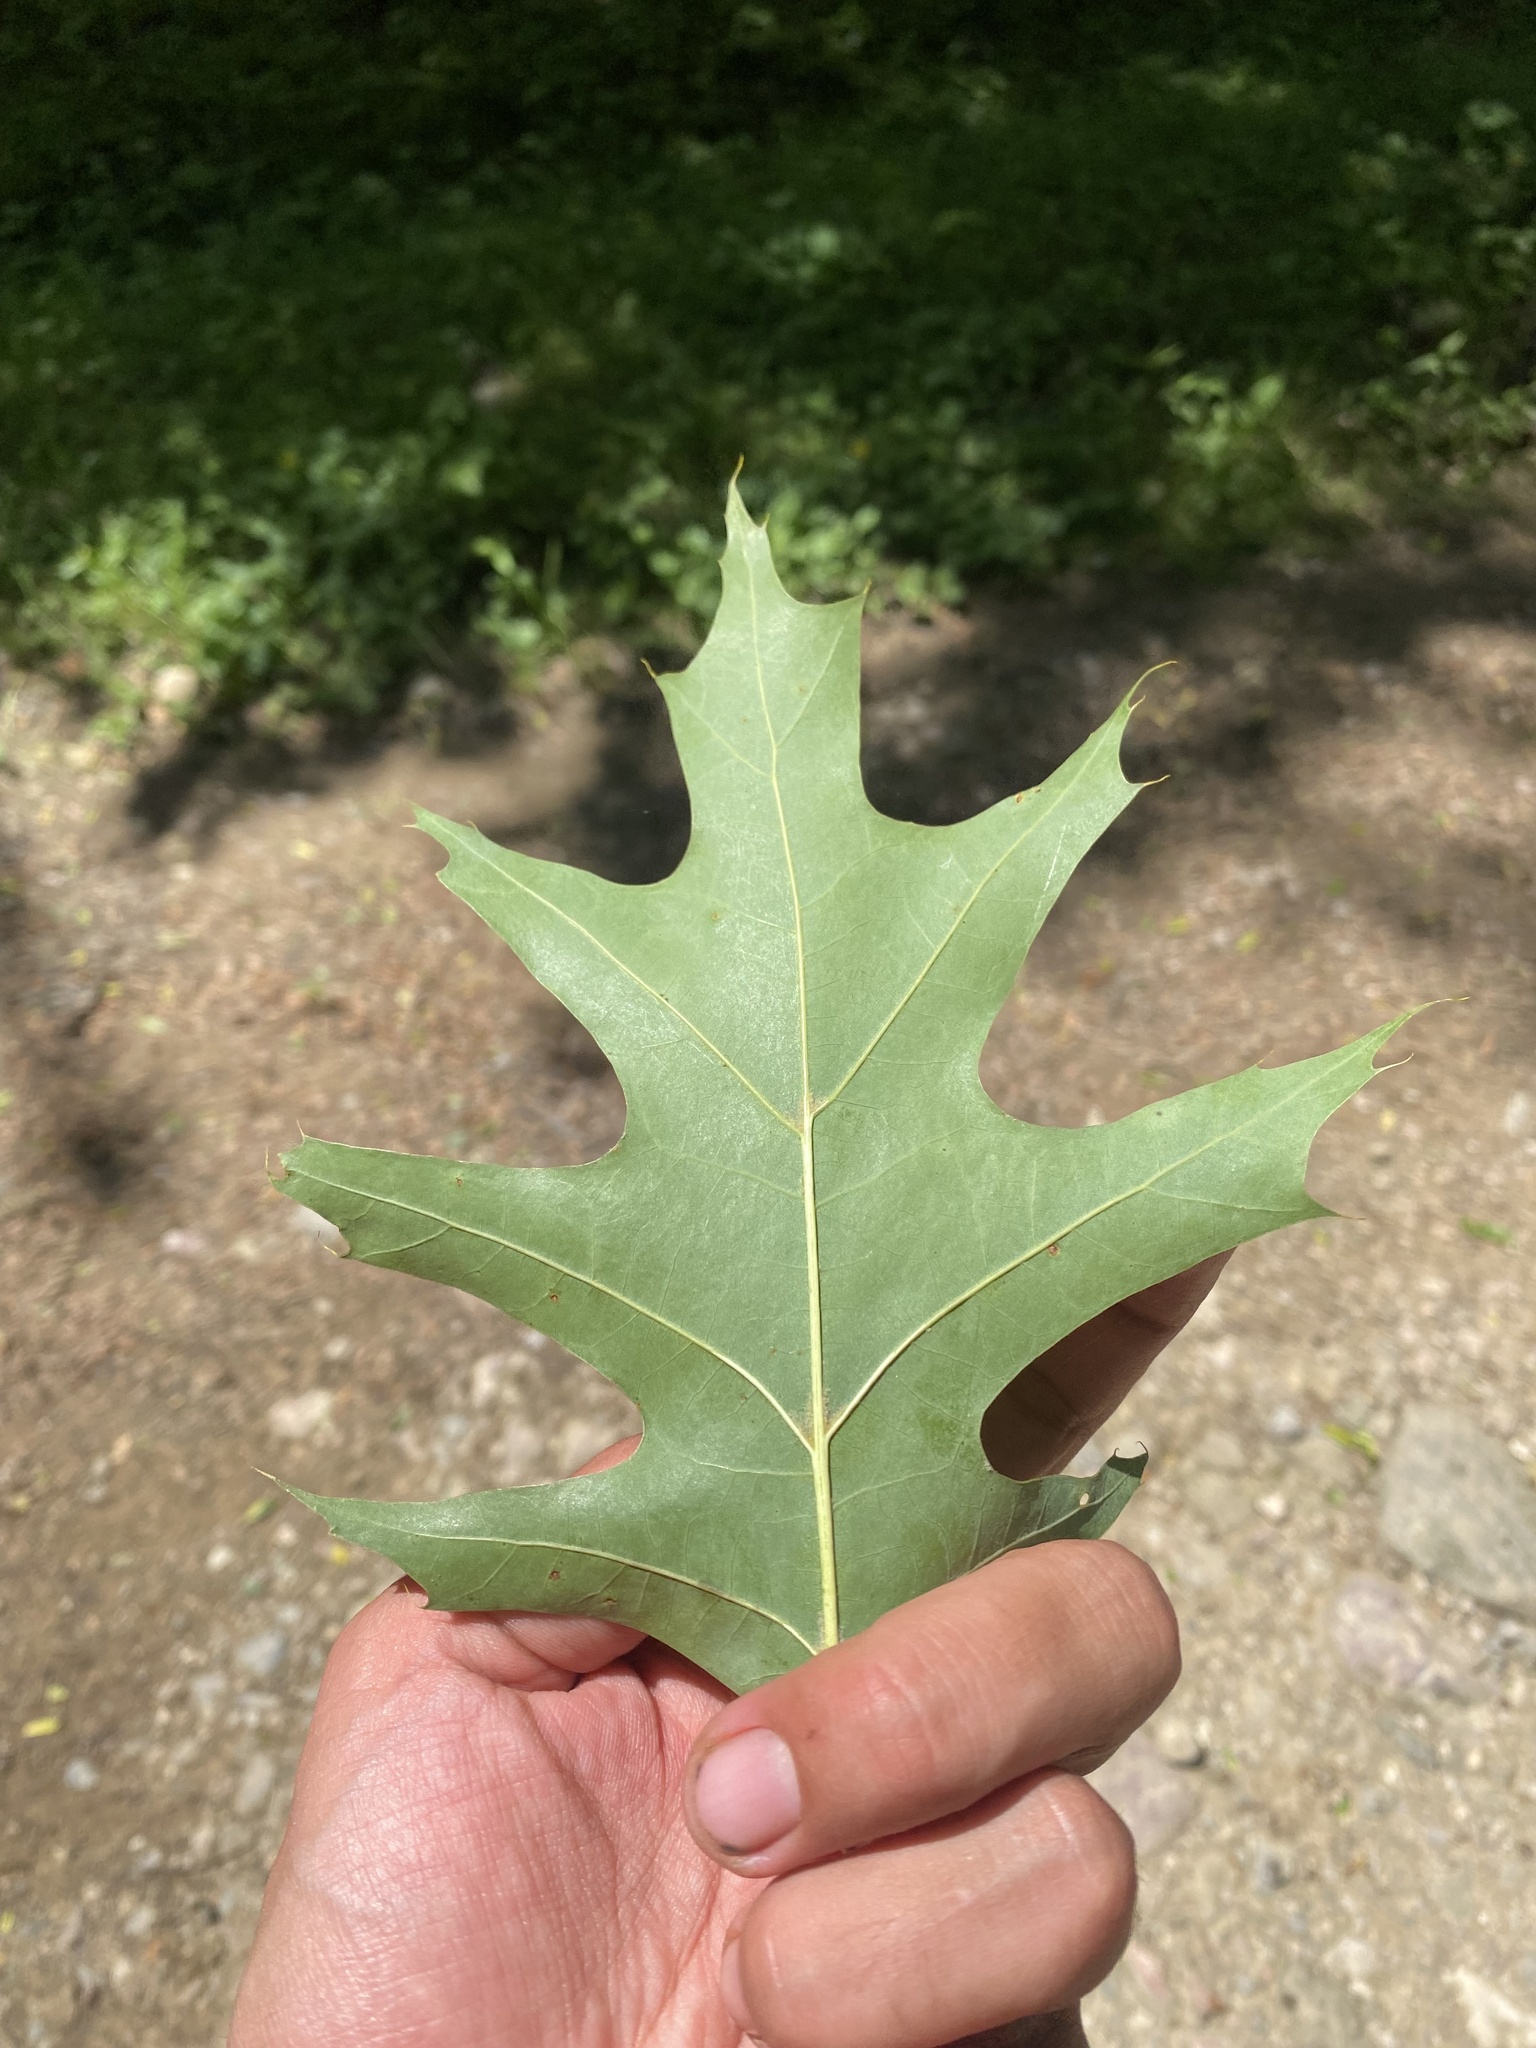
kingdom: Plantae
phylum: Tracheophyta
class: Magnoliopsida
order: Fagales
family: Fagaceae
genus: Quercus
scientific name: Quercus rubra
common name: Red oak
